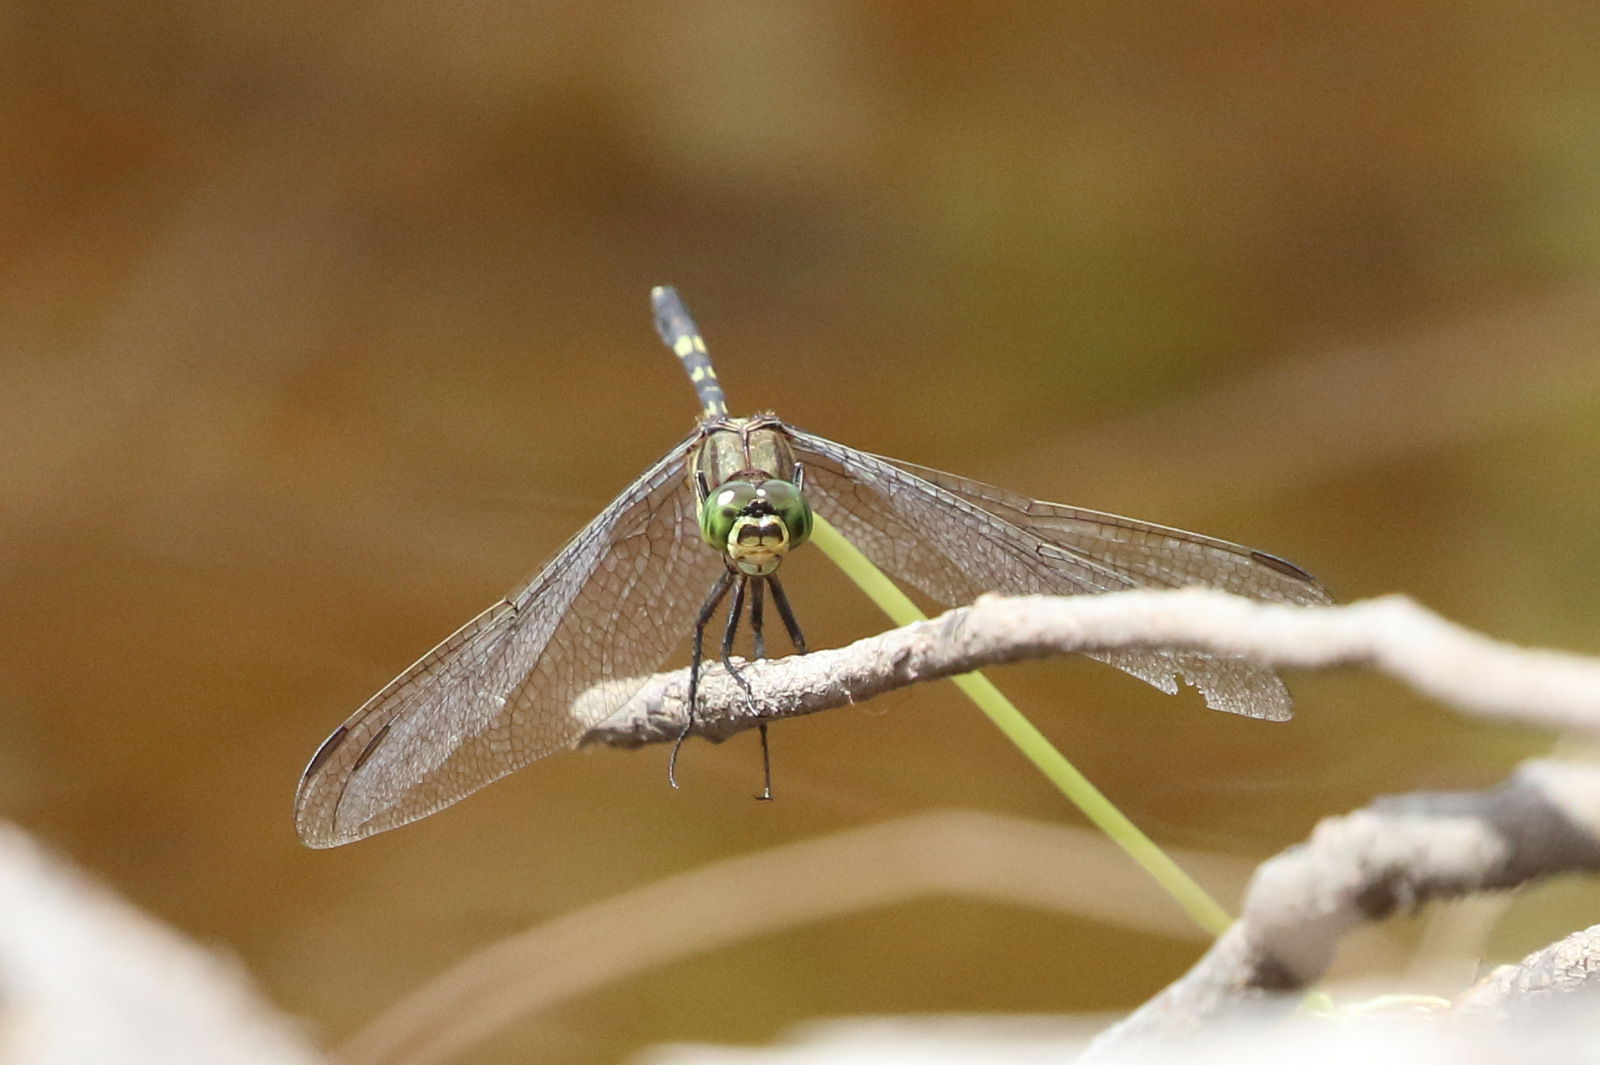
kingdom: Animalia
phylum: Arthropoda
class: Insecta
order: Odonata
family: Libellulidae
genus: Orthetrum
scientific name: Orthetrum serapia
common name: Green skimmer
